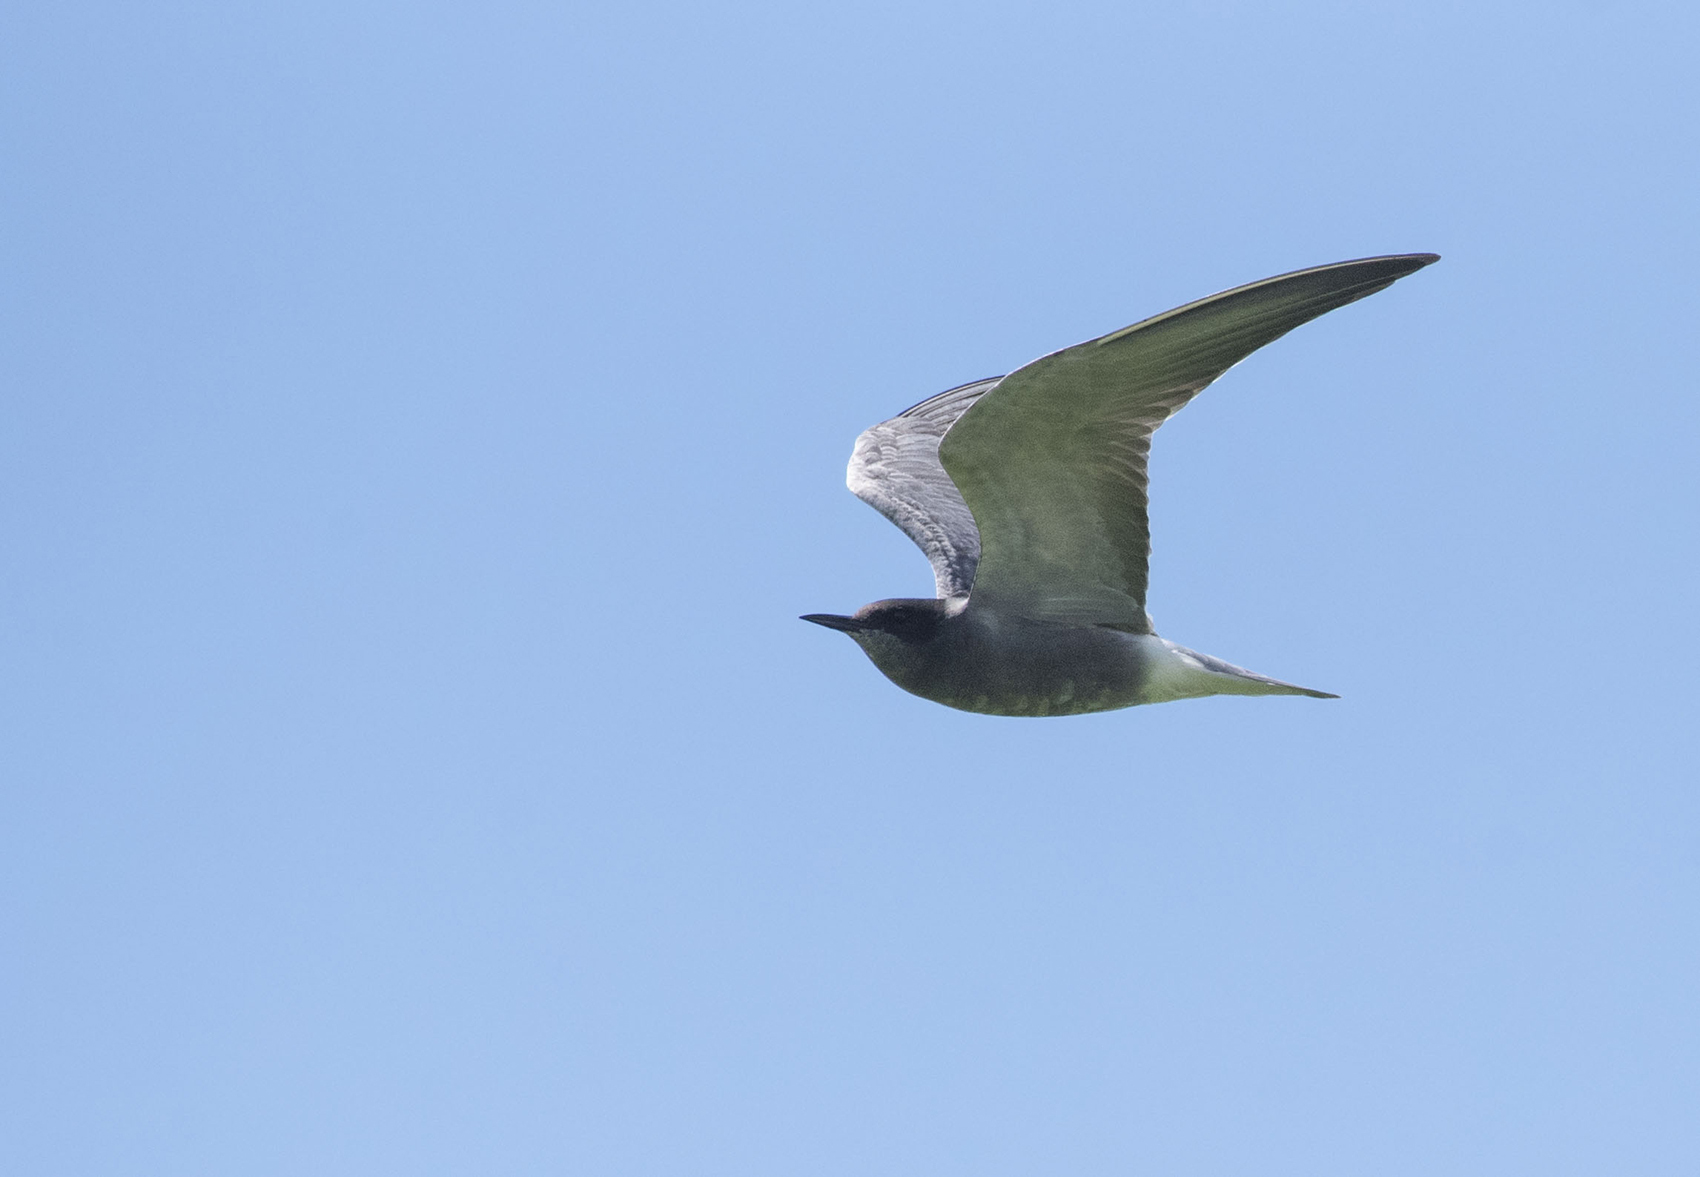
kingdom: Animalia
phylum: Chordata
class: Aves
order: Charadriiformes
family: Laridae
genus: Chlidonias
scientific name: Chlidonias niger
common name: Black tern
